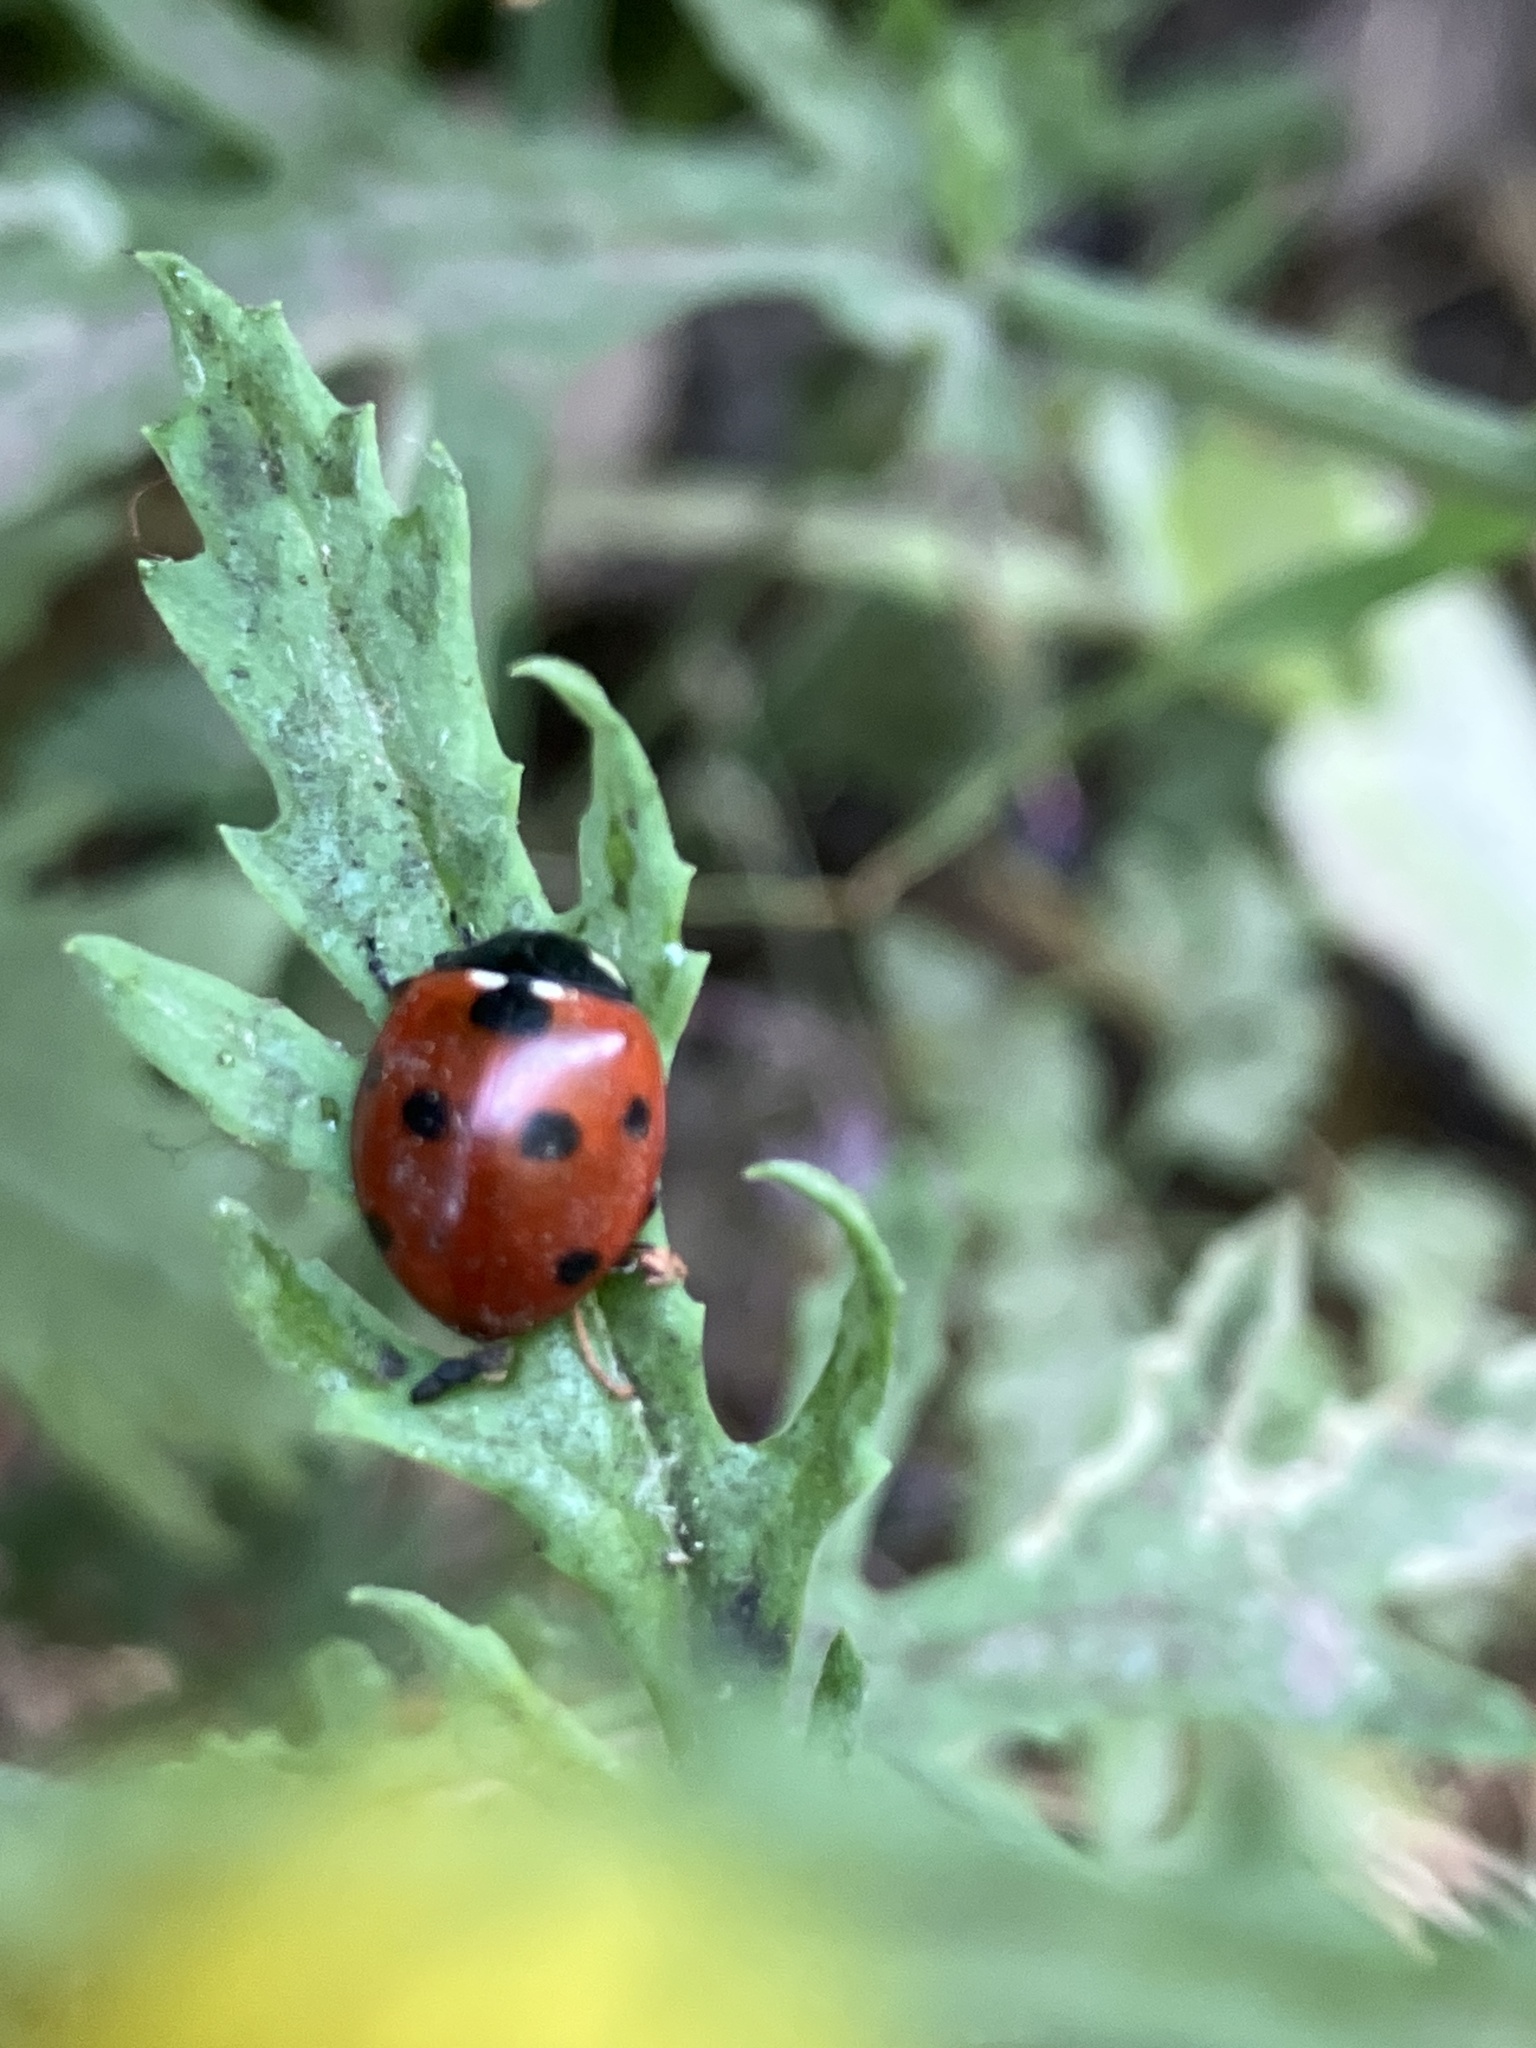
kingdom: Animalia
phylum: Arthropoda
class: Insecta
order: Coleoptera
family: Coccinellidae
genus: Coccinella
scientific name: Coccinella septempunctata
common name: Sevenspotted lady beetle
